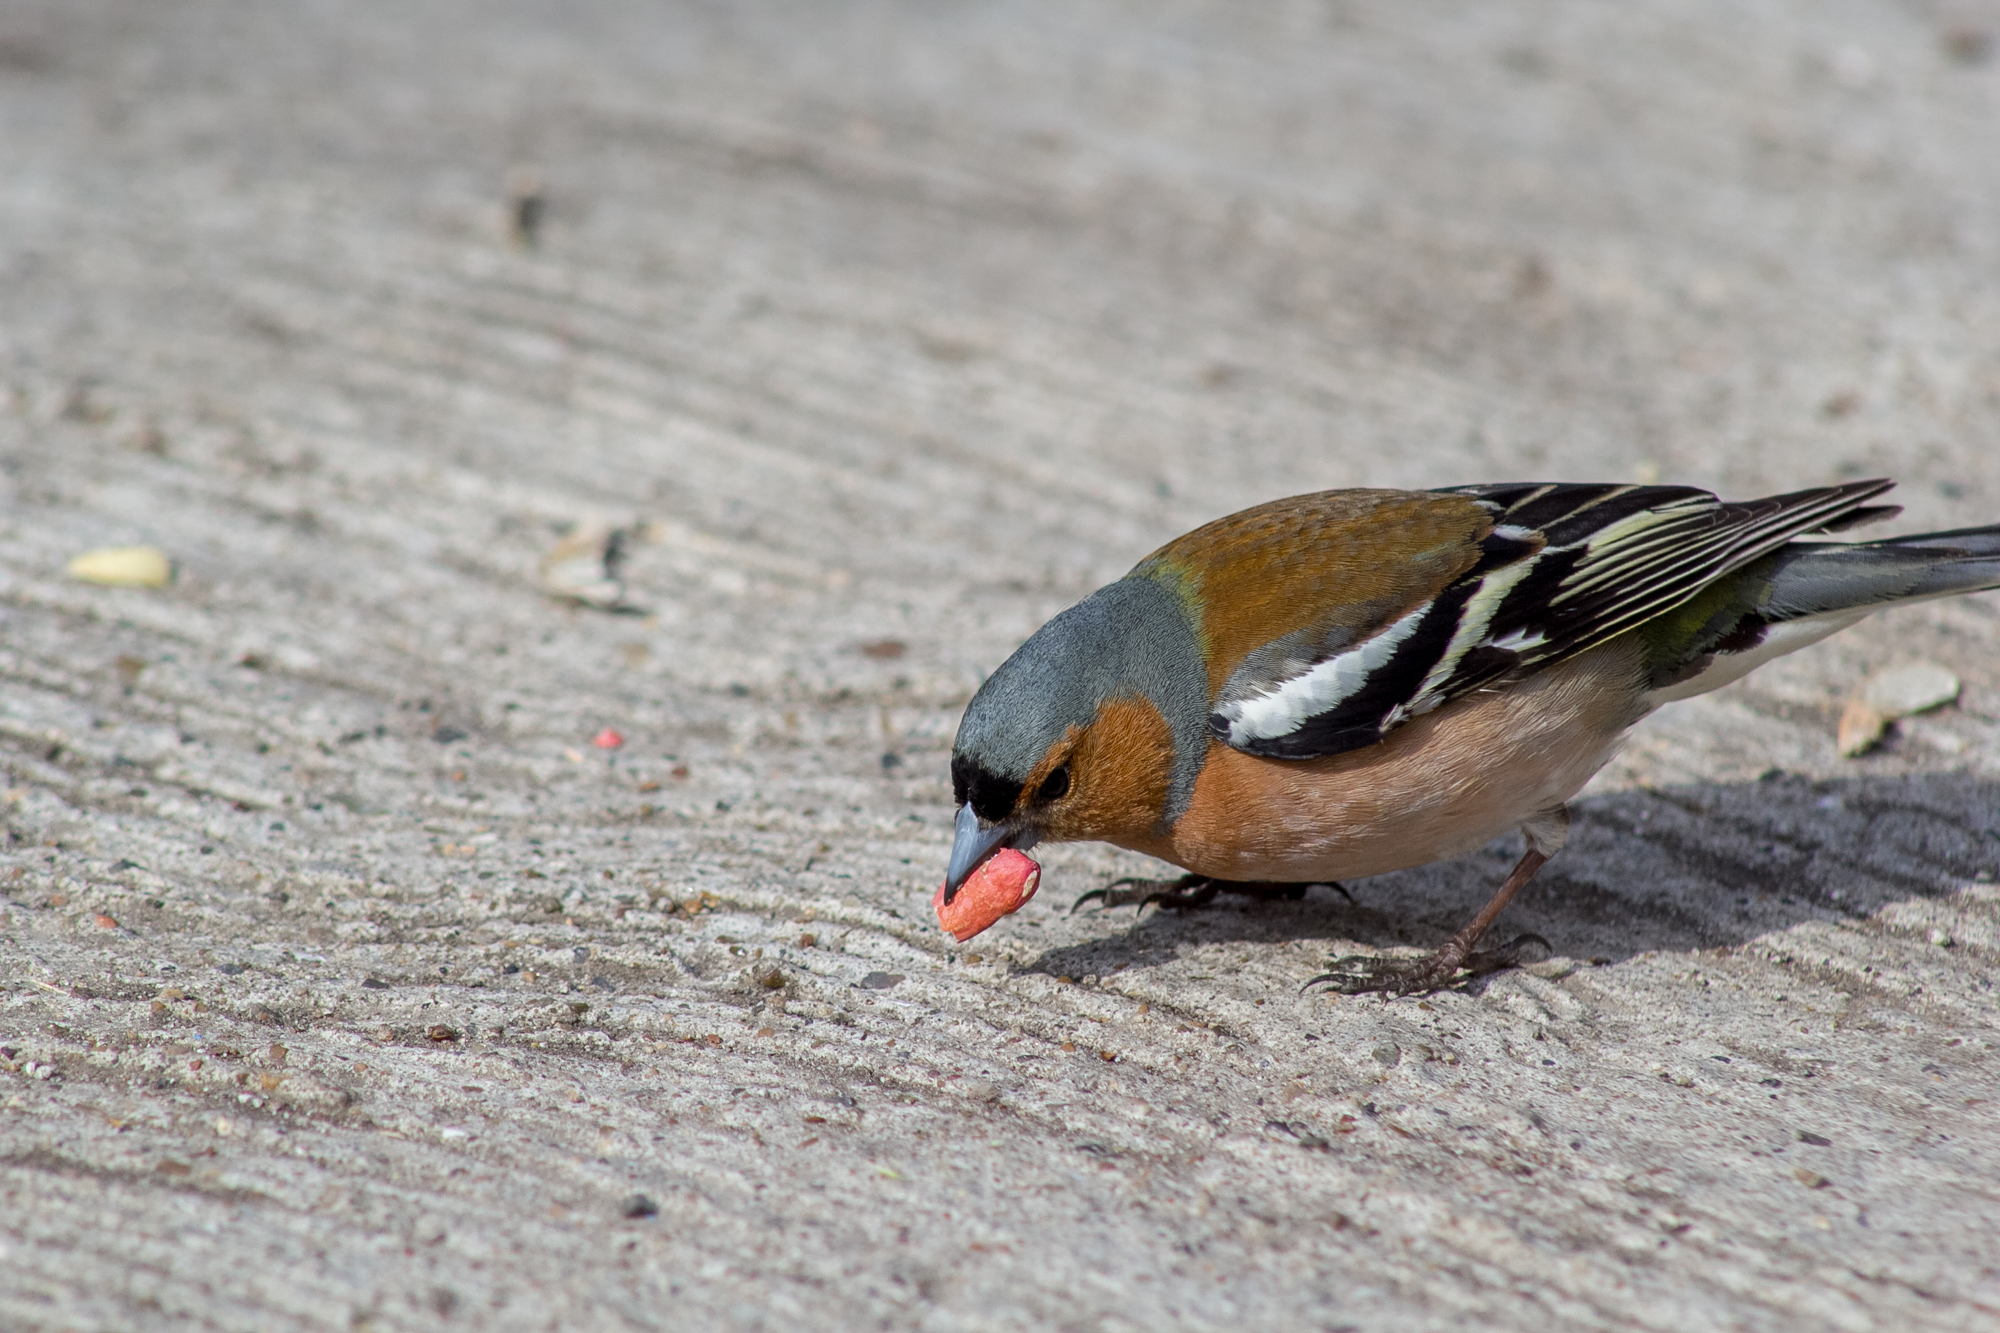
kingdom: Animalia
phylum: Chordata
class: Aves
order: Passeriformes
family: Fringillidae
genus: Fringilla
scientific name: Fringilla coelebs
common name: Common chaffinch
